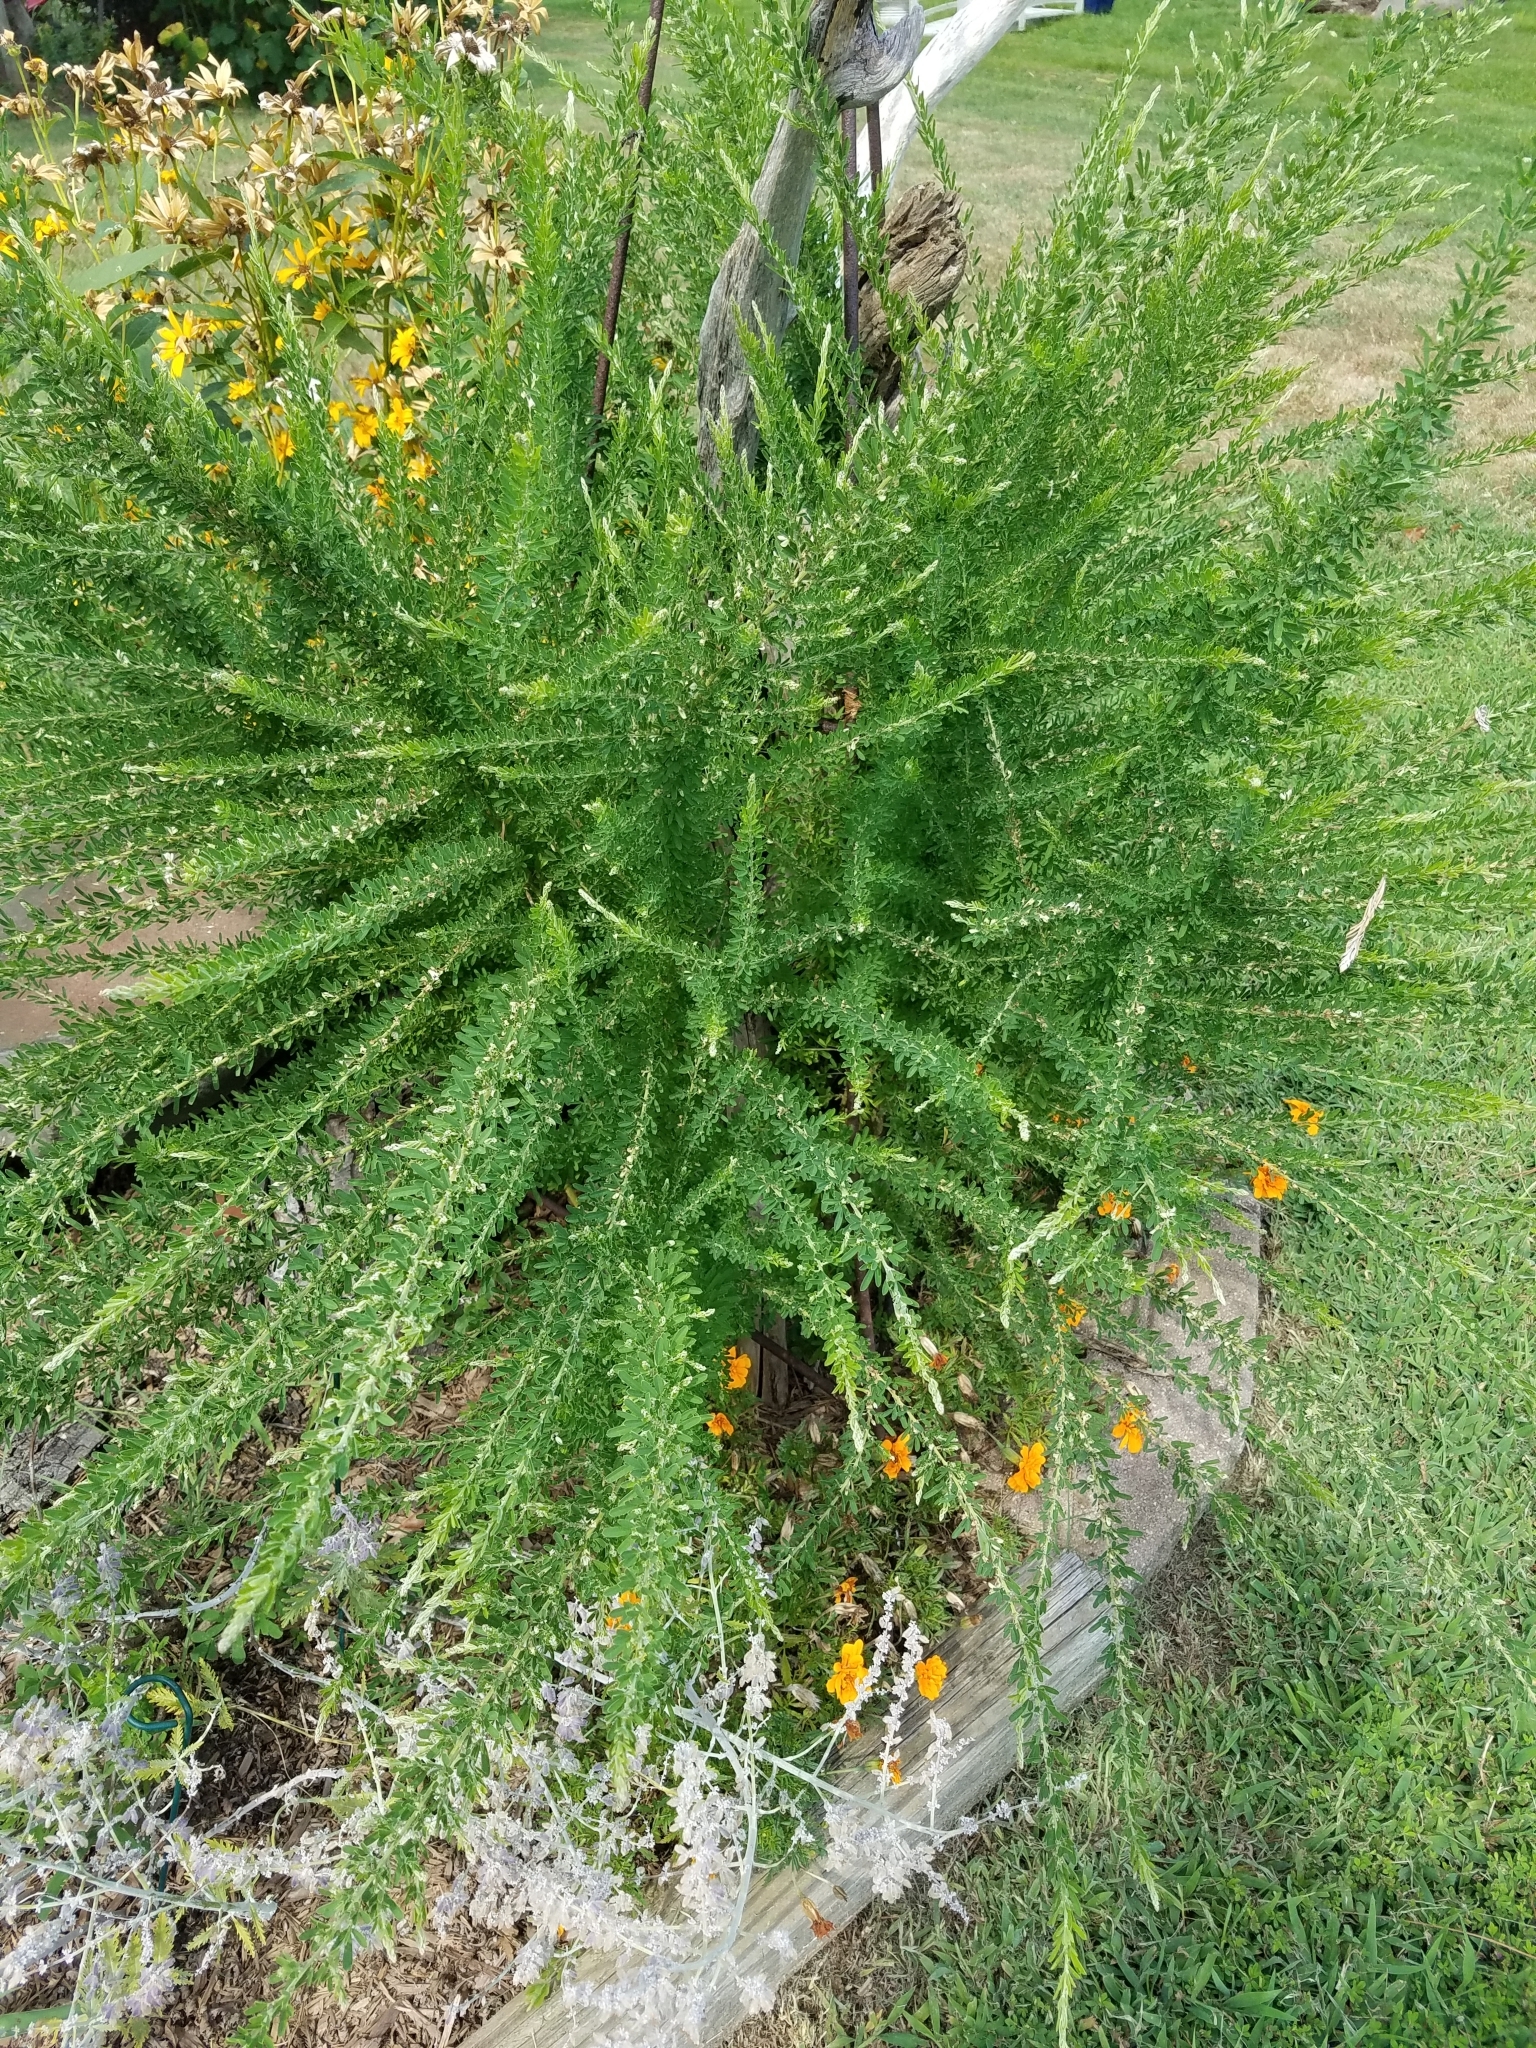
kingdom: Plantae
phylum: Tracheophyta
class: Magnoliopsida
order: Fabales
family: Fabaceae
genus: Lespedeza
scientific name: Lespedeza cuneata
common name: Chinese bush-clover
